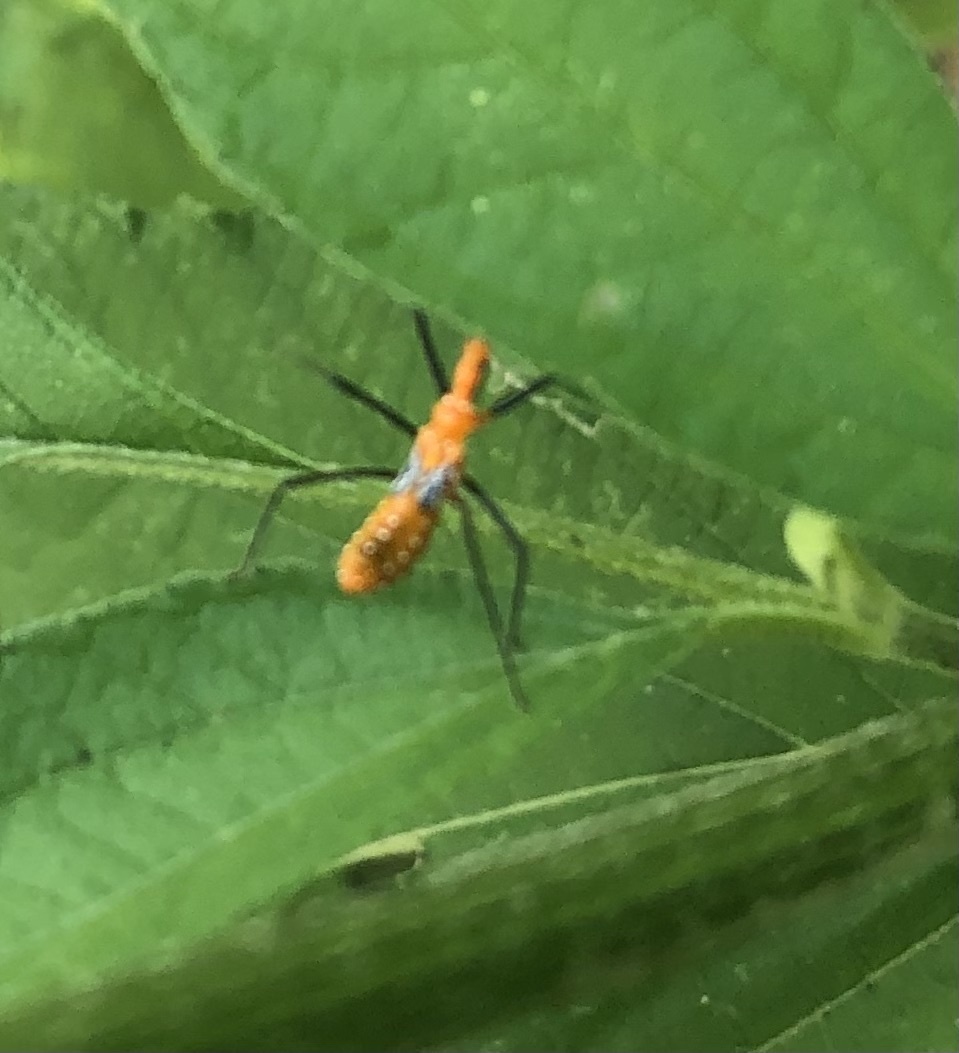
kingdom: Animalia
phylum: Arthropoda
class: Insecta
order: Hemiptera
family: Reduviidae
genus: Zelus
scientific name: Zelus longipes
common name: Milkweed assassin bug
